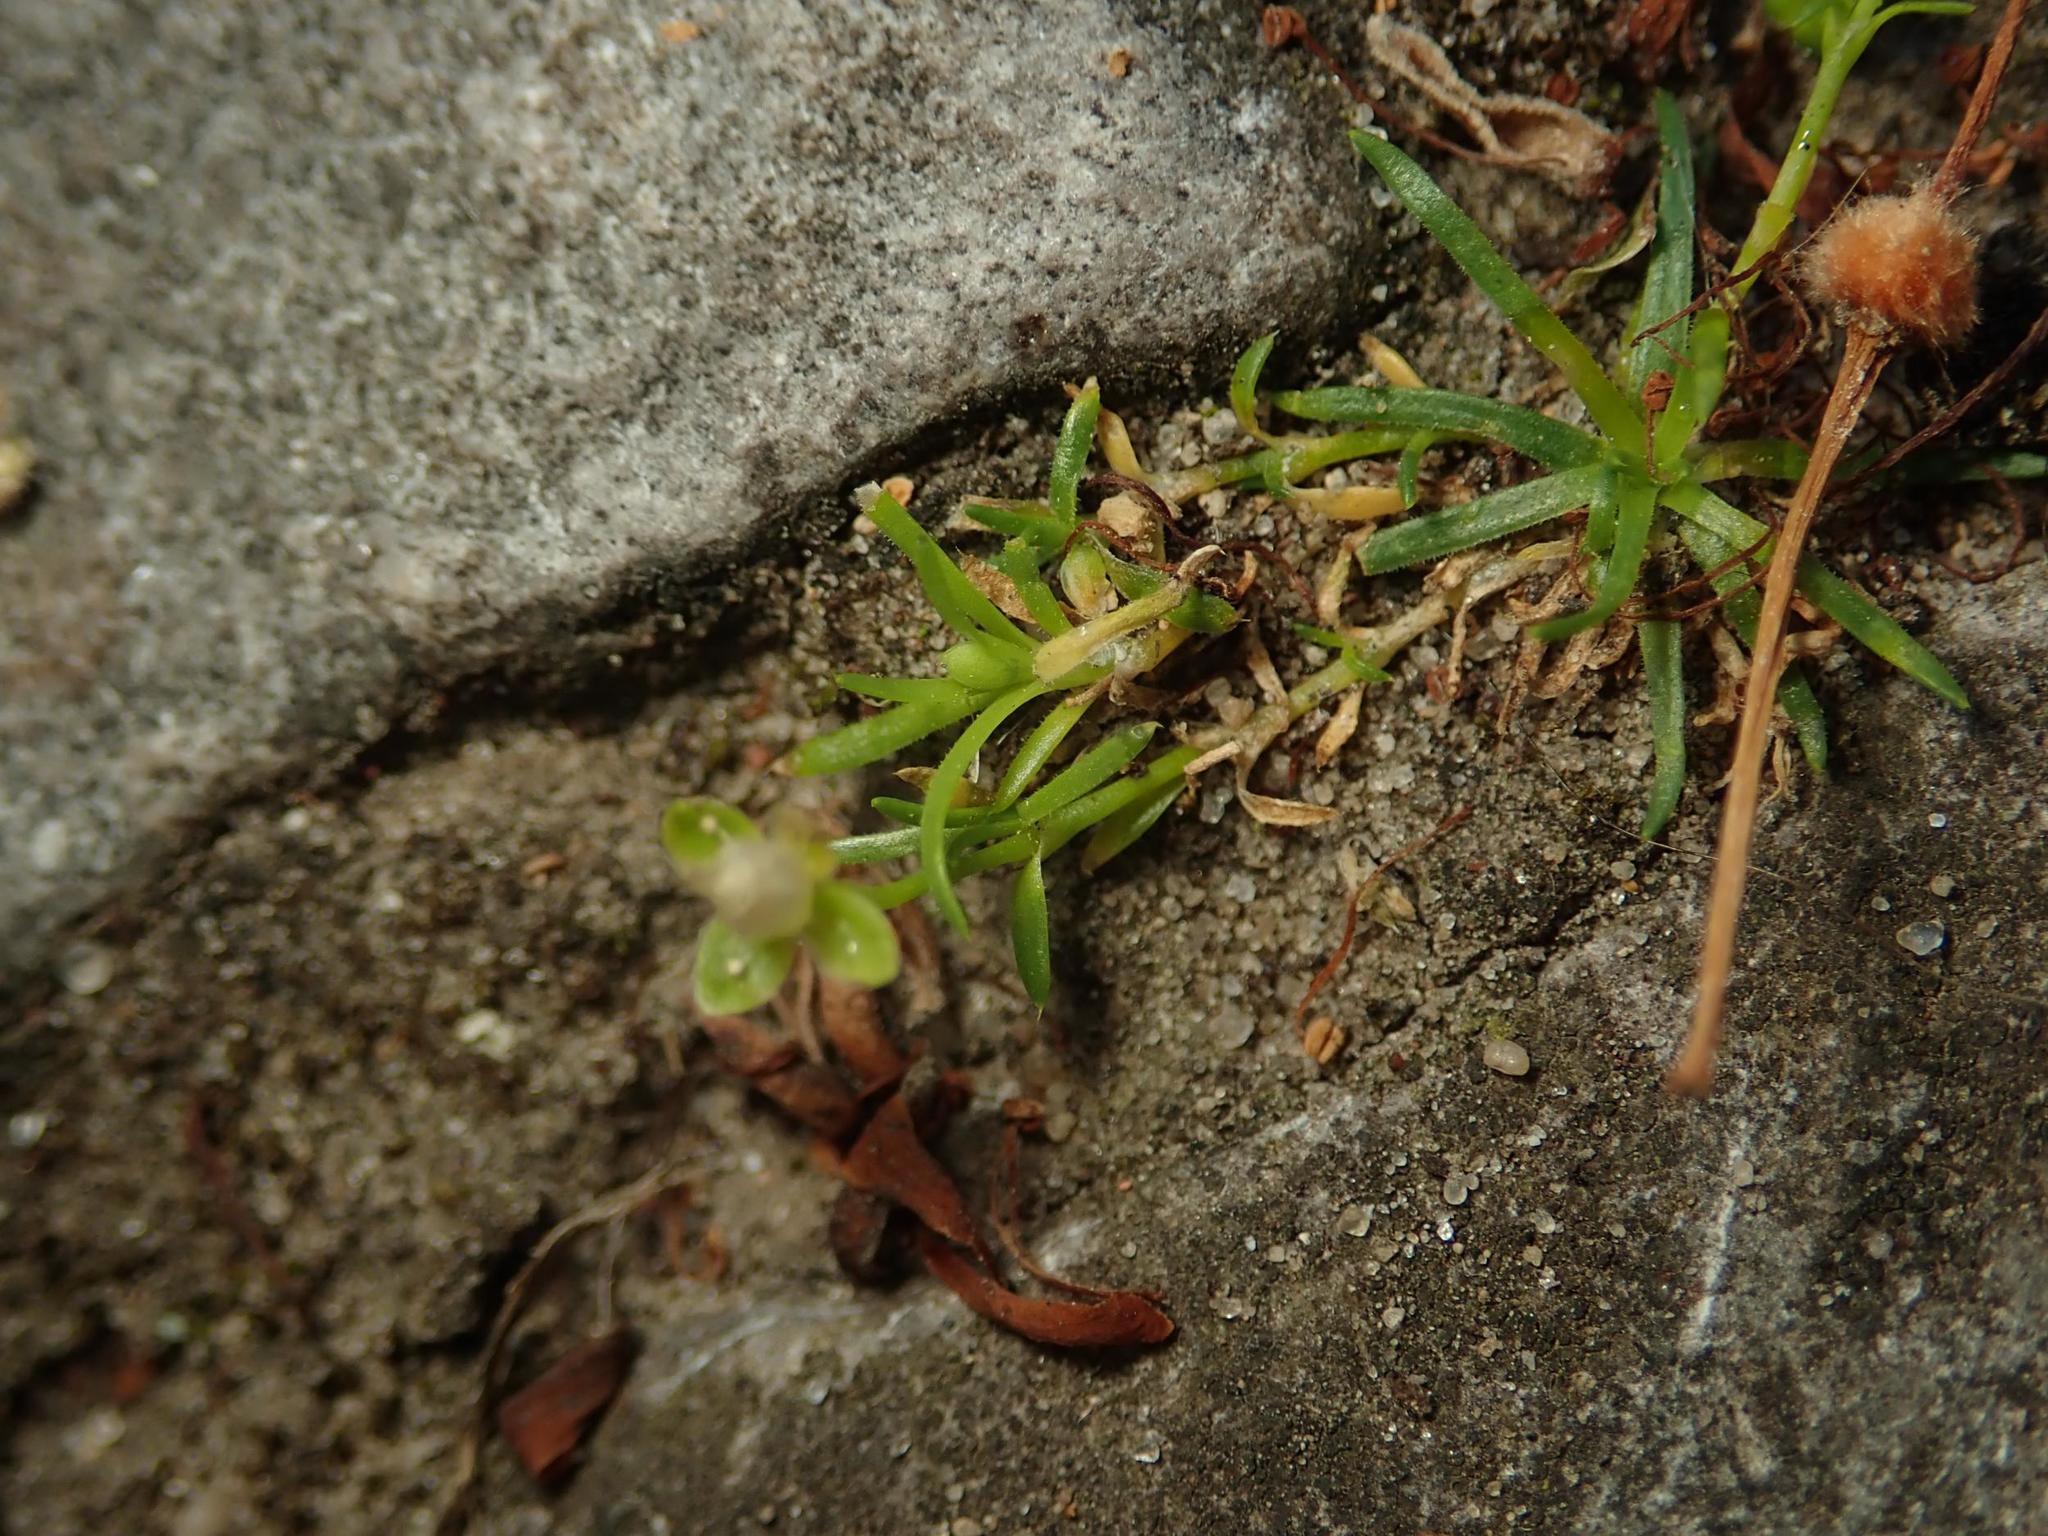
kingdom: Plantae
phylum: Tracheophyta
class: Magnoliopsida
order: Caryophyllales
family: Caryophyllaceae
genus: Sagina
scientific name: Sagina procumbens
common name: Procumbent pearlwort
